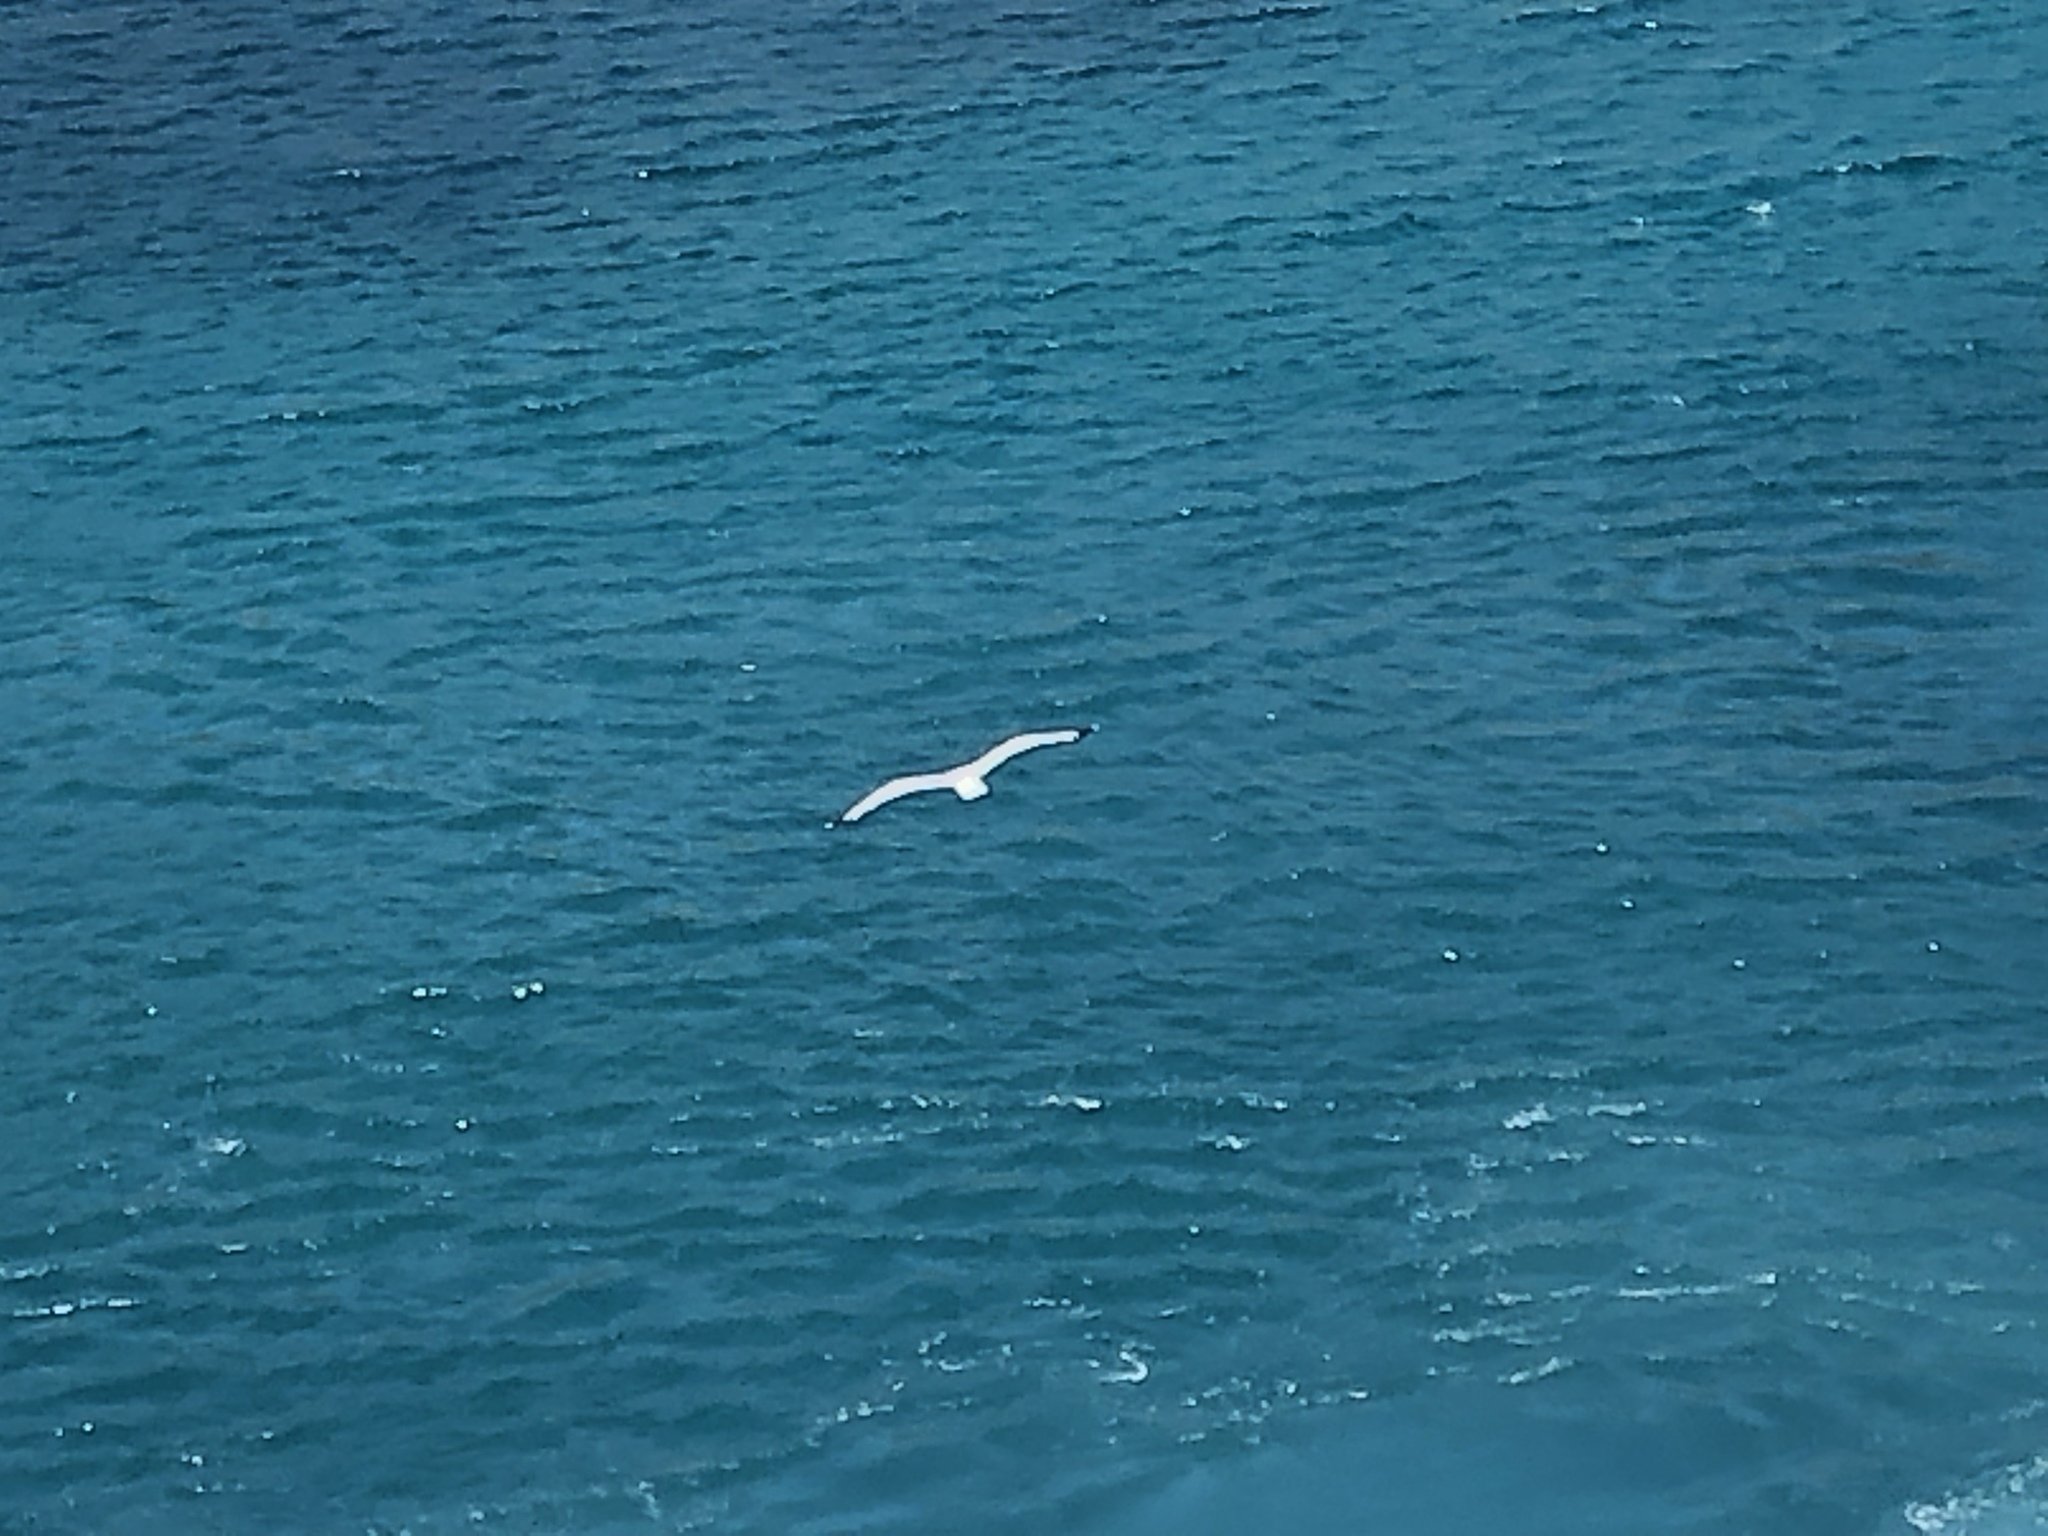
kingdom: Animalia
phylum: Chordata
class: Aves
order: Charadriiformes
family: Laridae
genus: Larus
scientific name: Larus michahellis
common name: Yellow-legged gull
